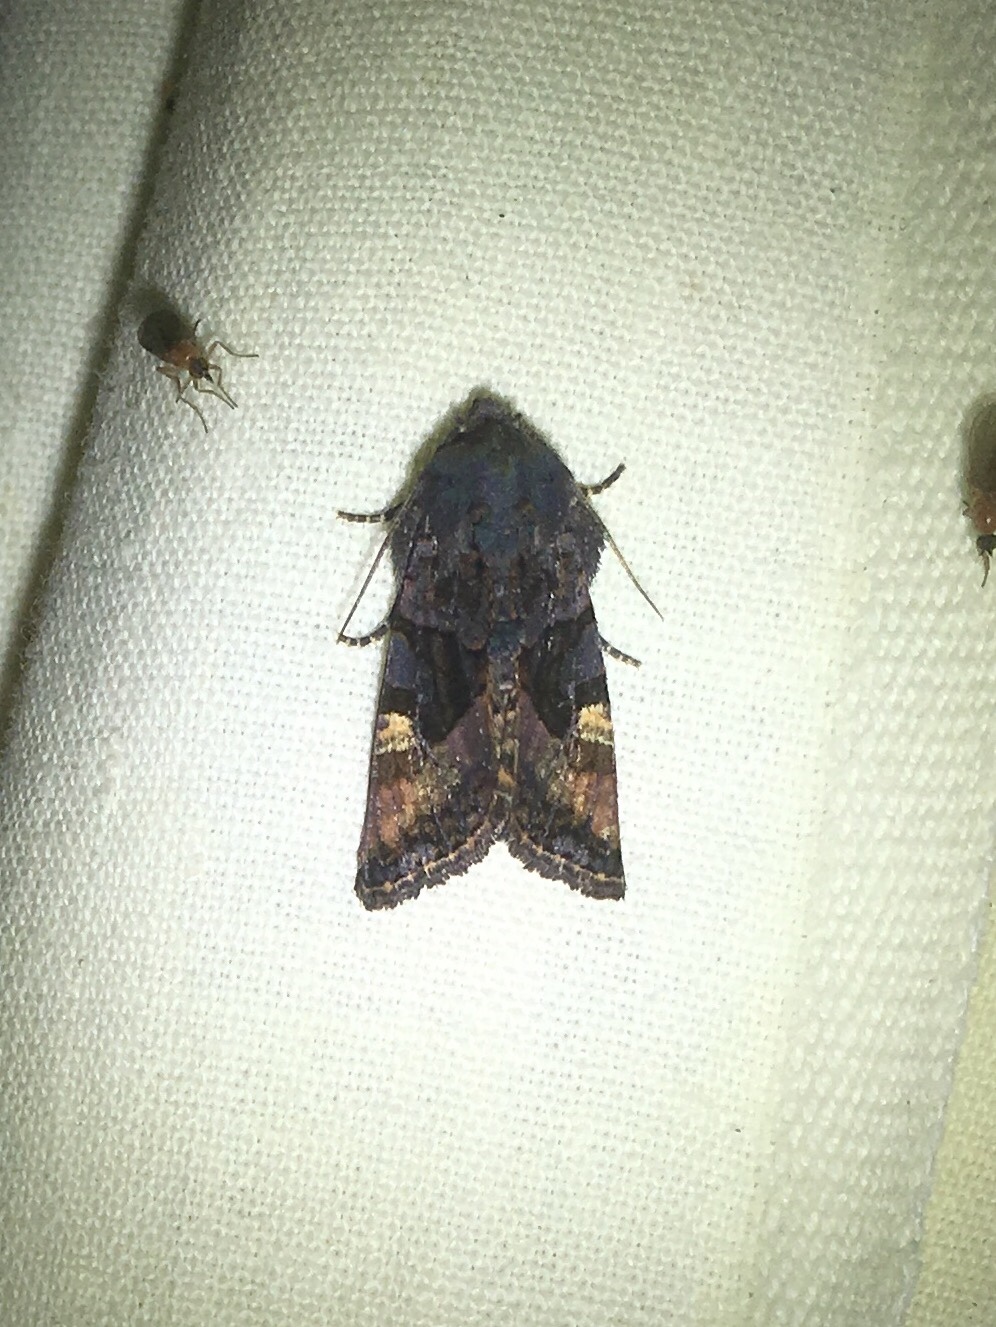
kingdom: Animalia
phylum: Arthropoda
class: Insecta
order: Lepidoptera
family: Noctuidae
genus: Euplexia
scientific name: Euplexia benesimilis
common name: American angle shades
